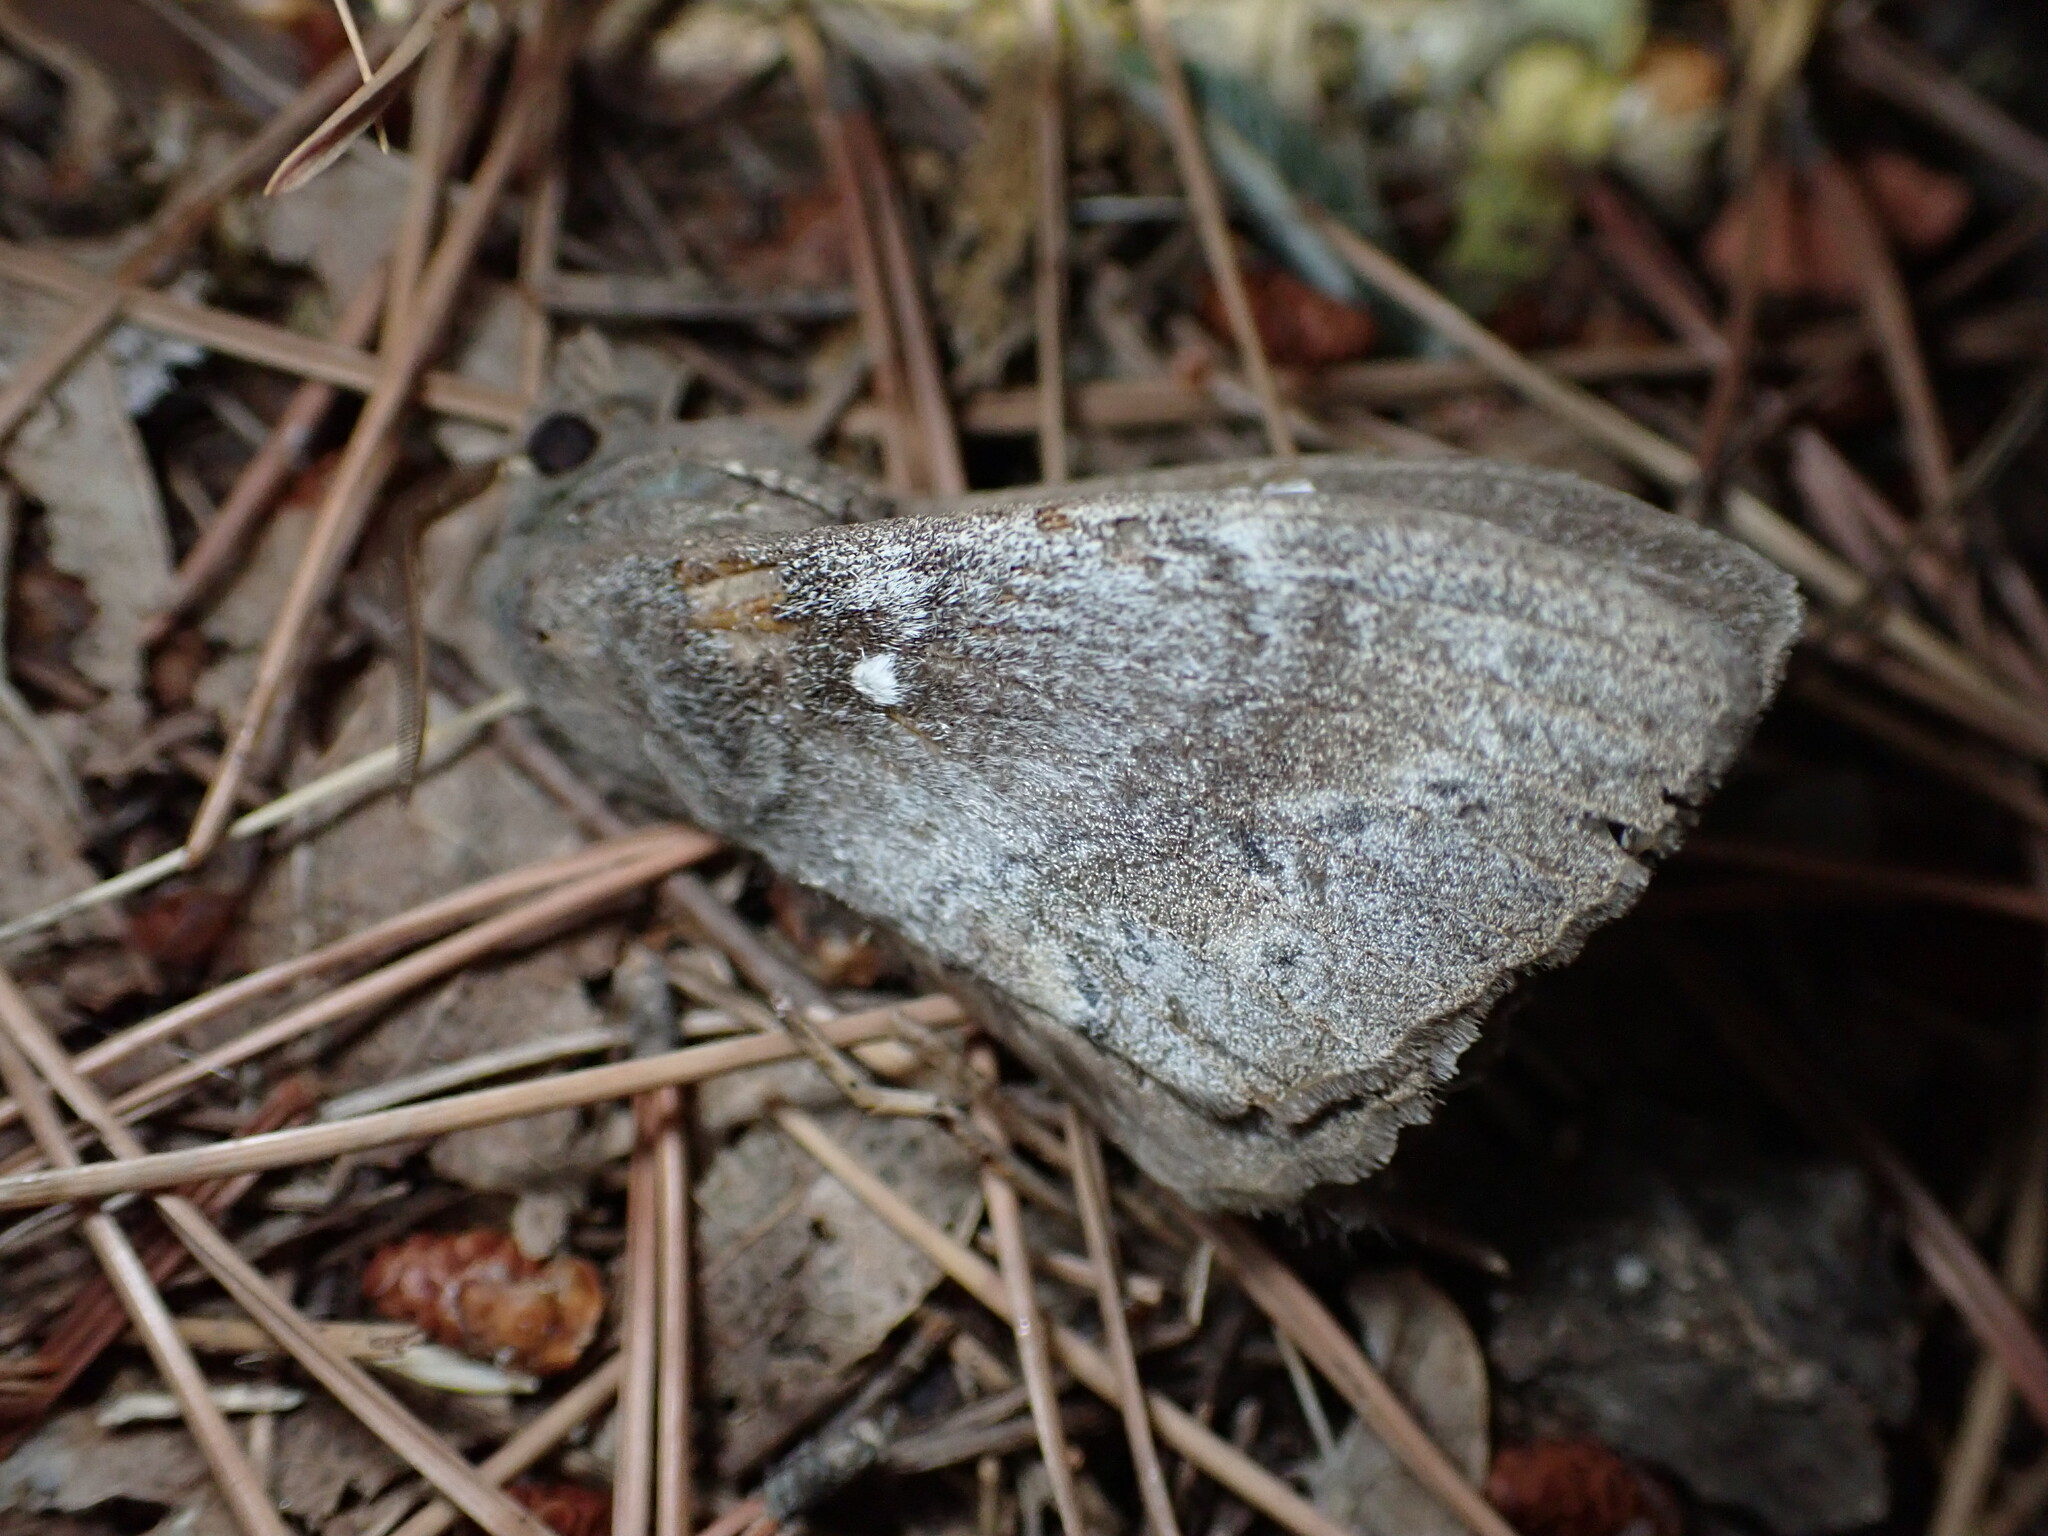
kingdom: Animalia
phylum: Arthropoda
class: Insecta
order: Lepidoptera
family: Lasiocampidae
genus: Dendrolimus
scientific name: Dendrolimus pini
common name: Pine-tree lappet
